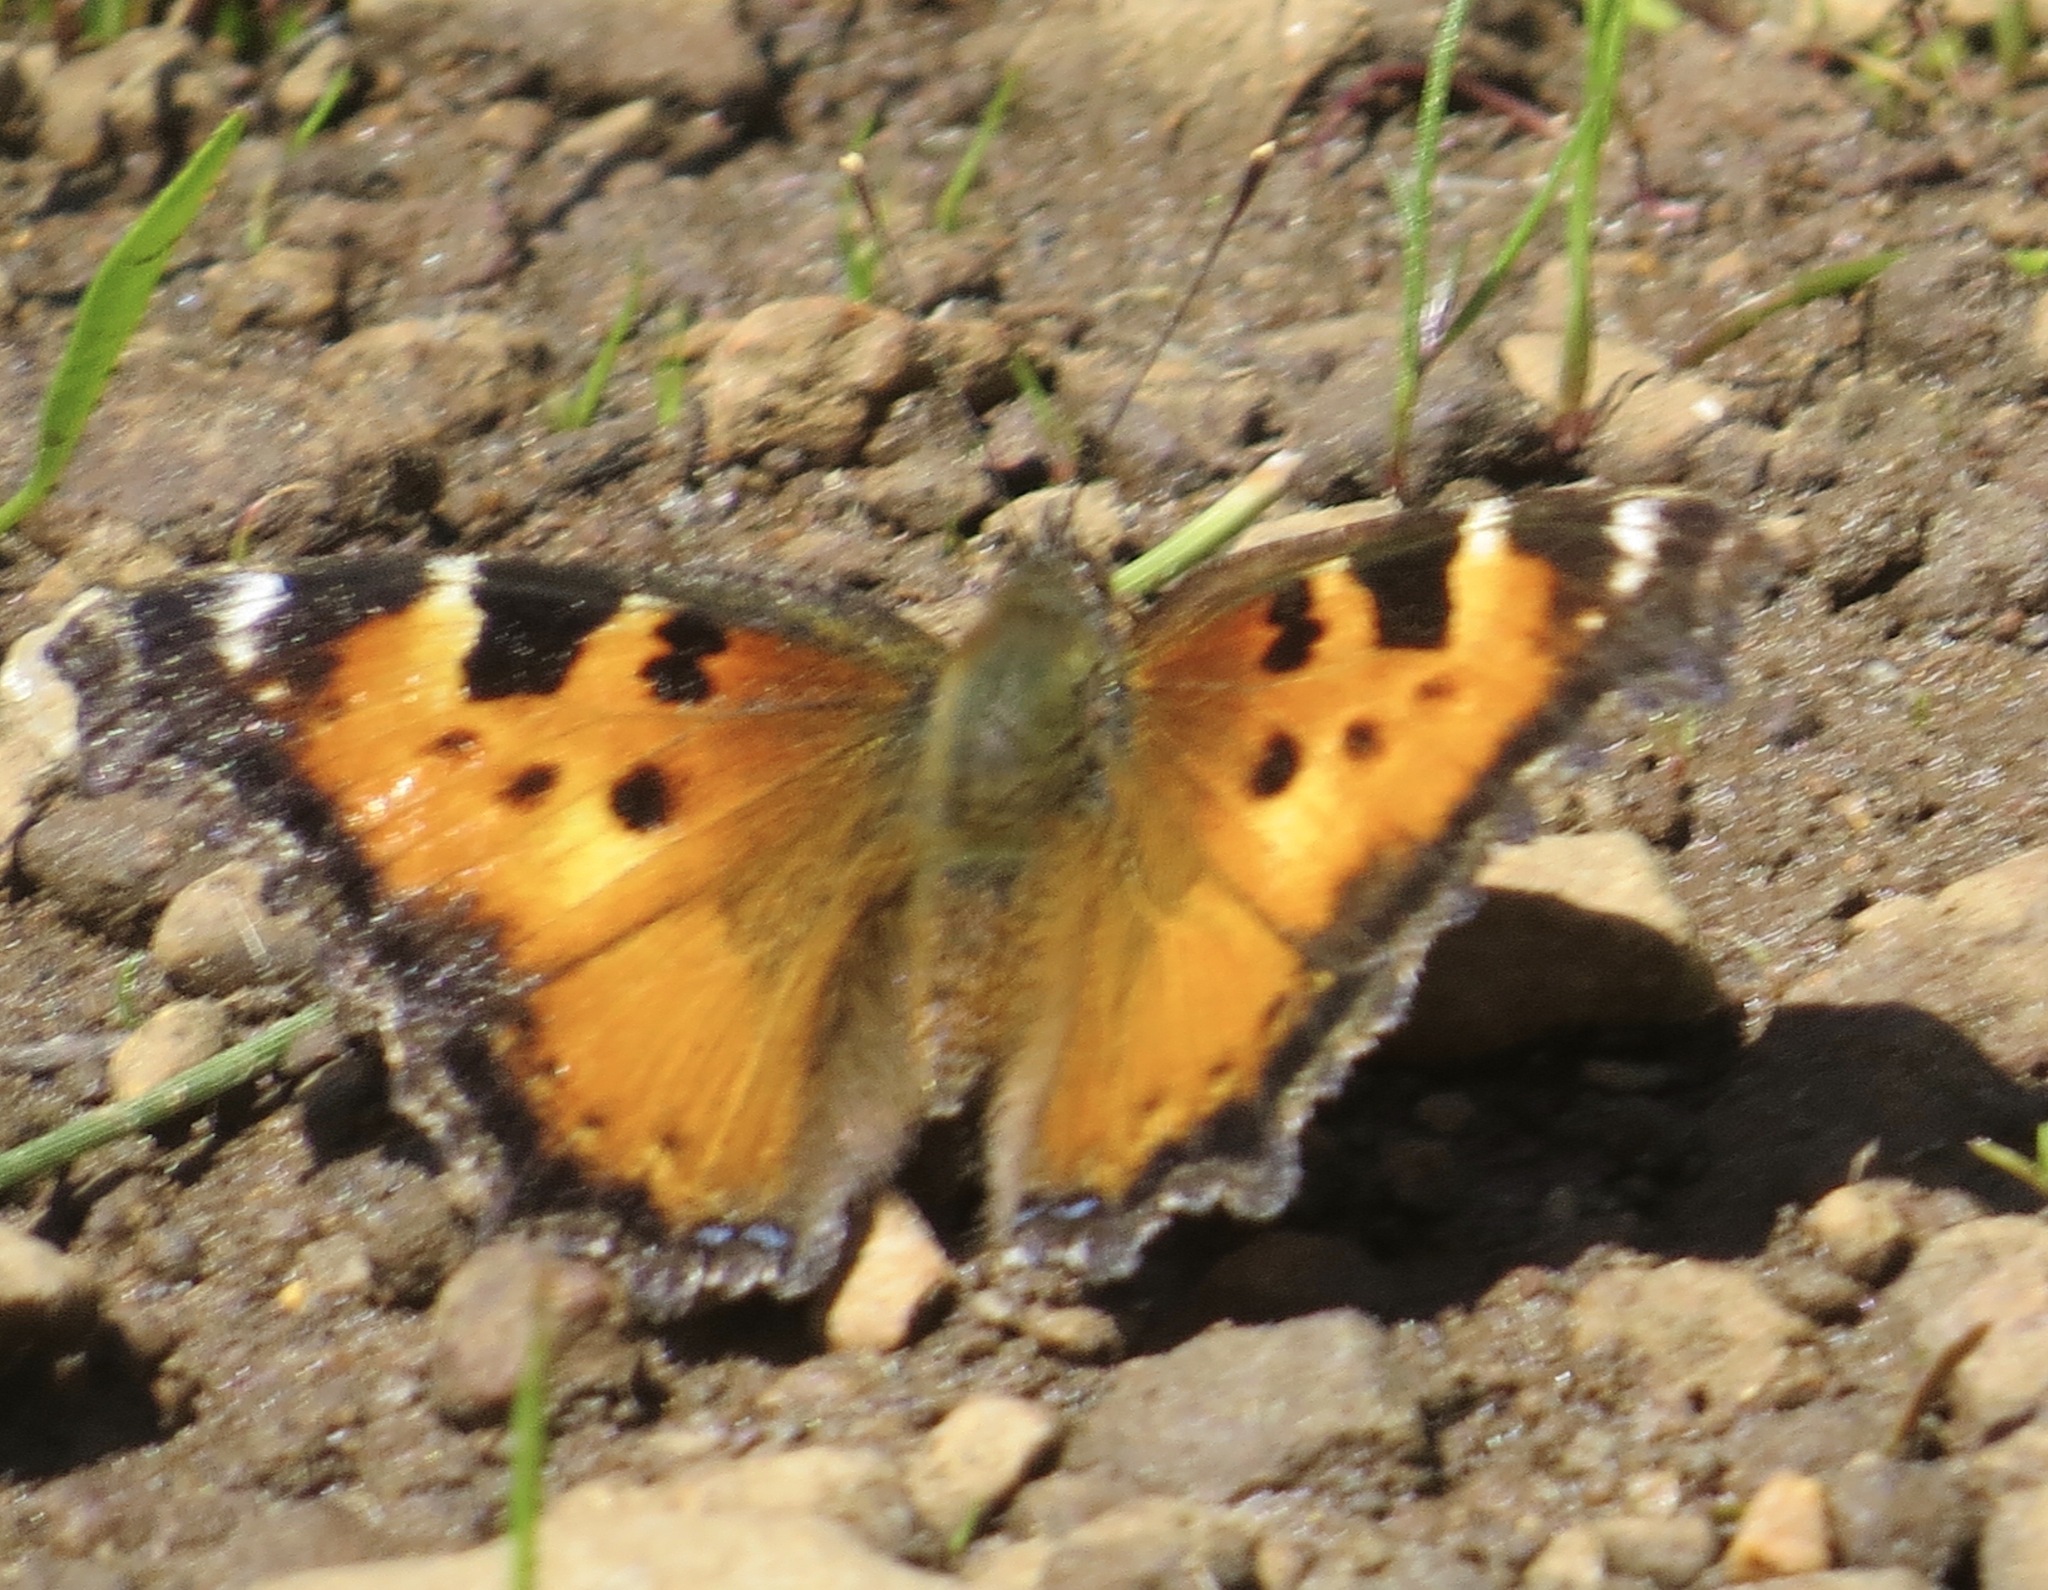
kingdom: Animalia
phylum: Arthropoda
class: Insecta
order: Lepidoptera
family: Nymphalidae
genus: Nymphalis
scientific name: Nymphalis californica
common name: California tortoiseshell
